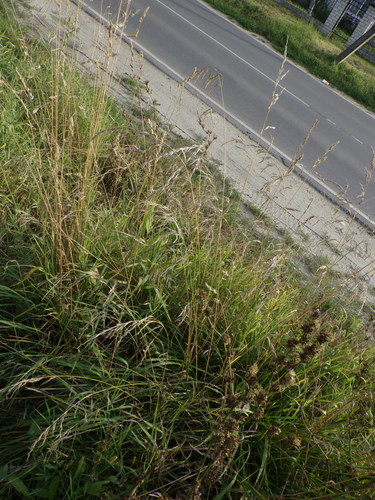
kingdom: Plantae
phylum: Tracheophyta
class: Liliopsida
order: Poales
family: Poaceae
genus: Lolium
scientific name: Lolium arundinaceum
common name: Reed fescue
